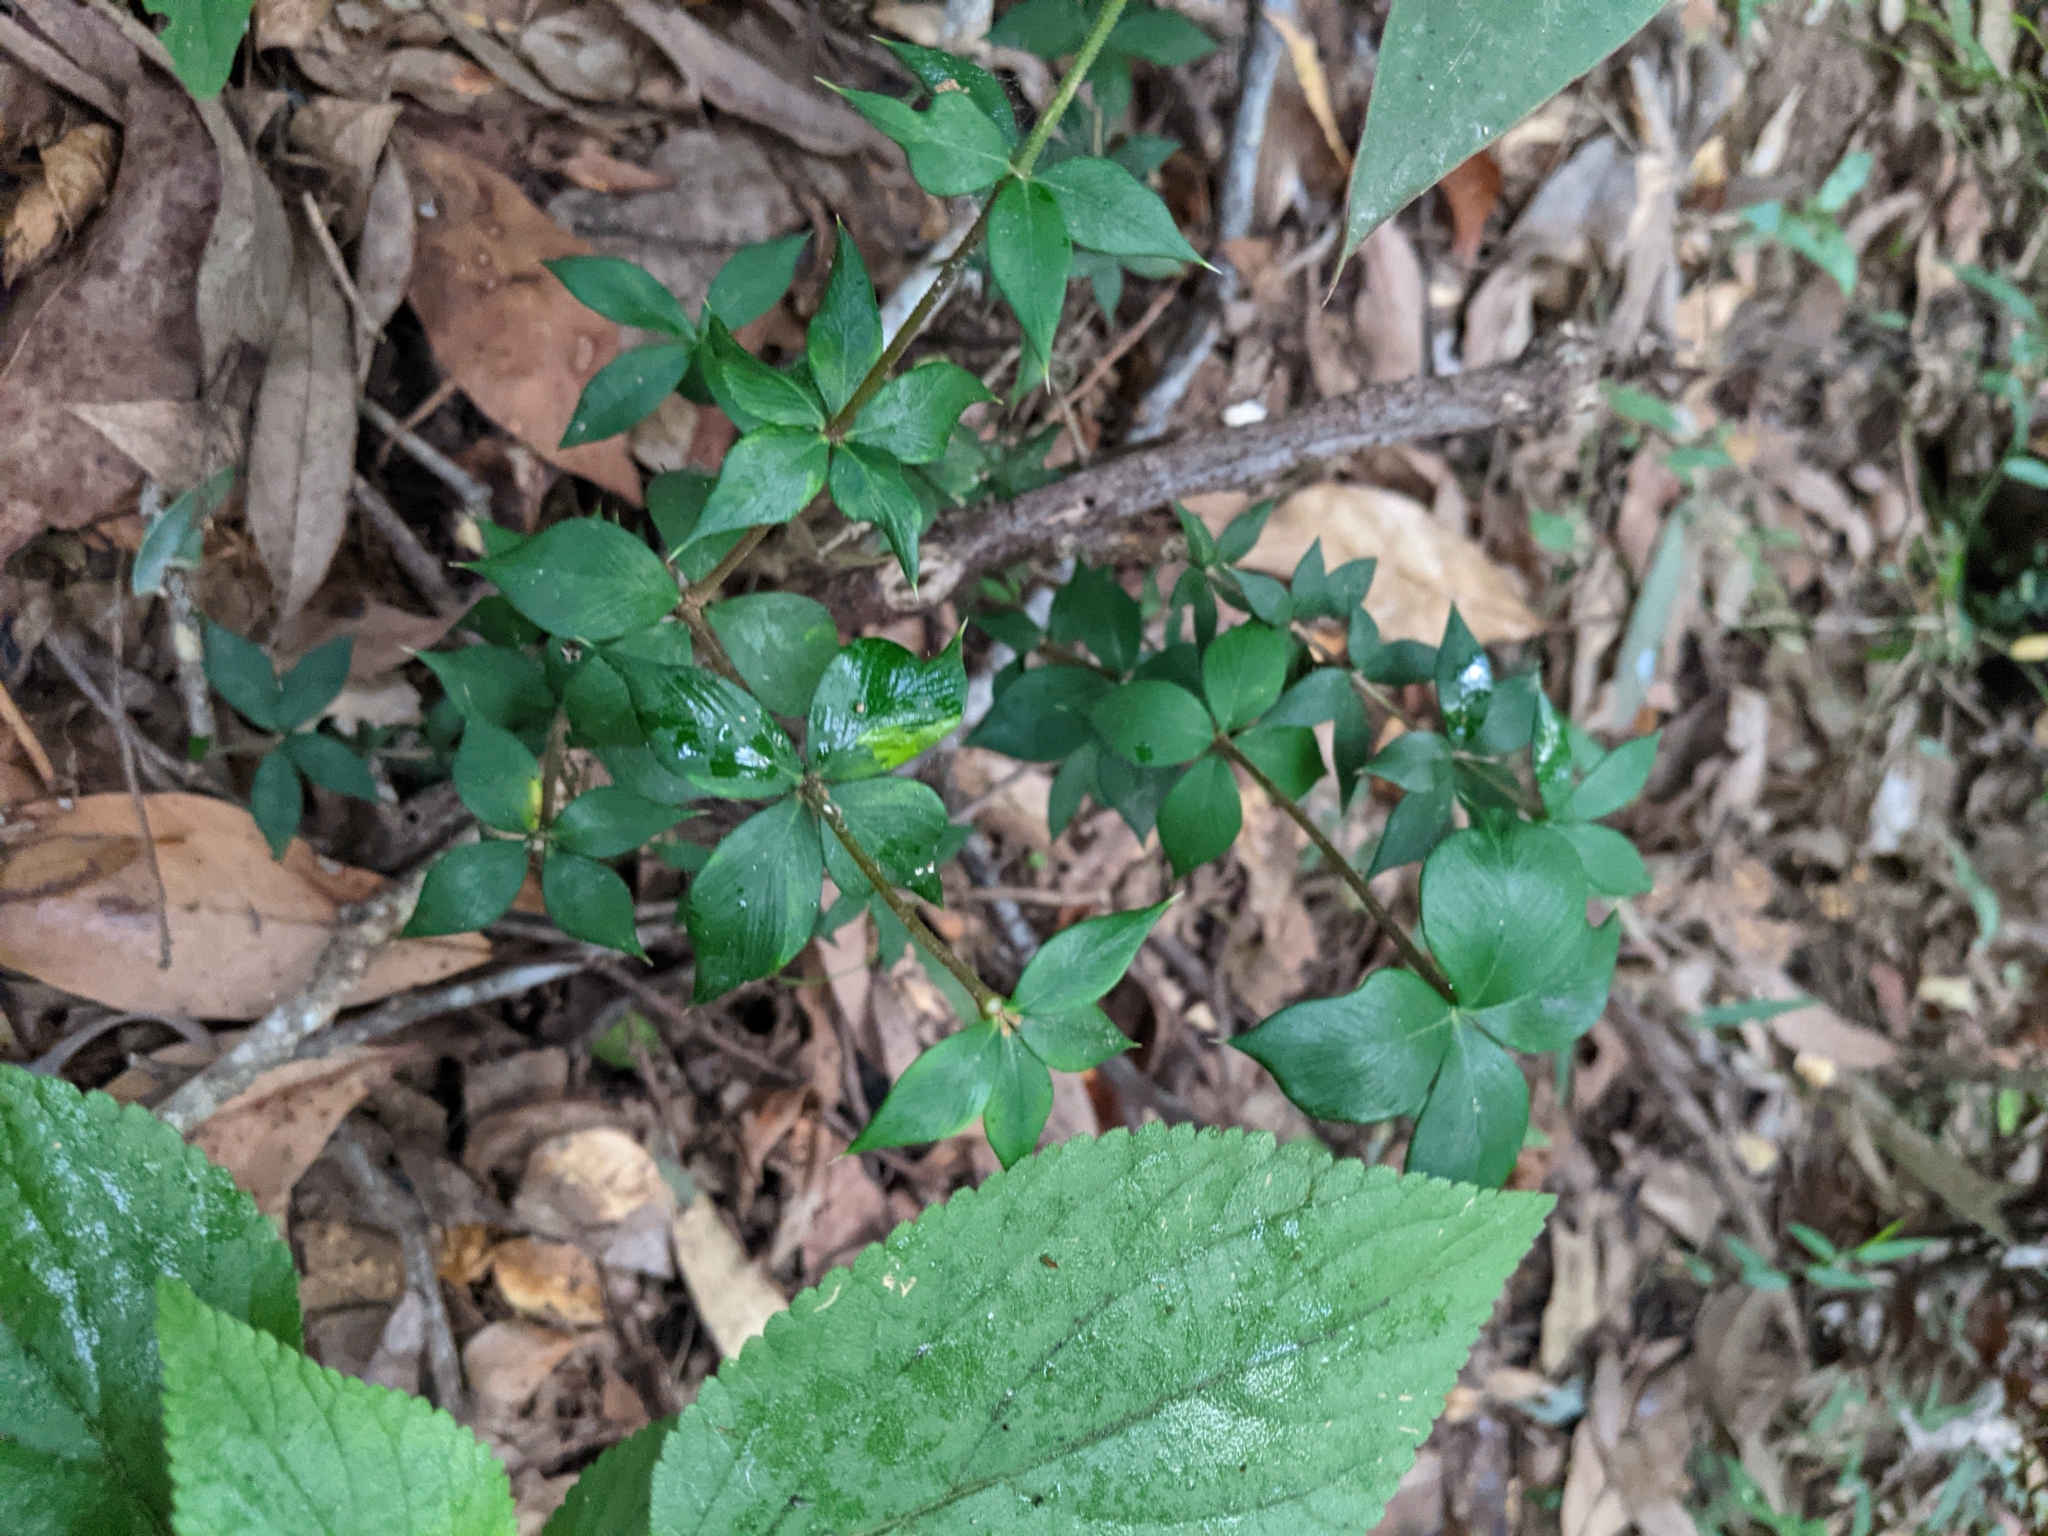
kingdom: Plantae
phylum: Tracheophyta
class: Magnoliopsida
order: Gentianales
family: Apocynaceae
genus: Alyxia
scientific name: Alyxia ruscifolia
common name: Chainfruit
